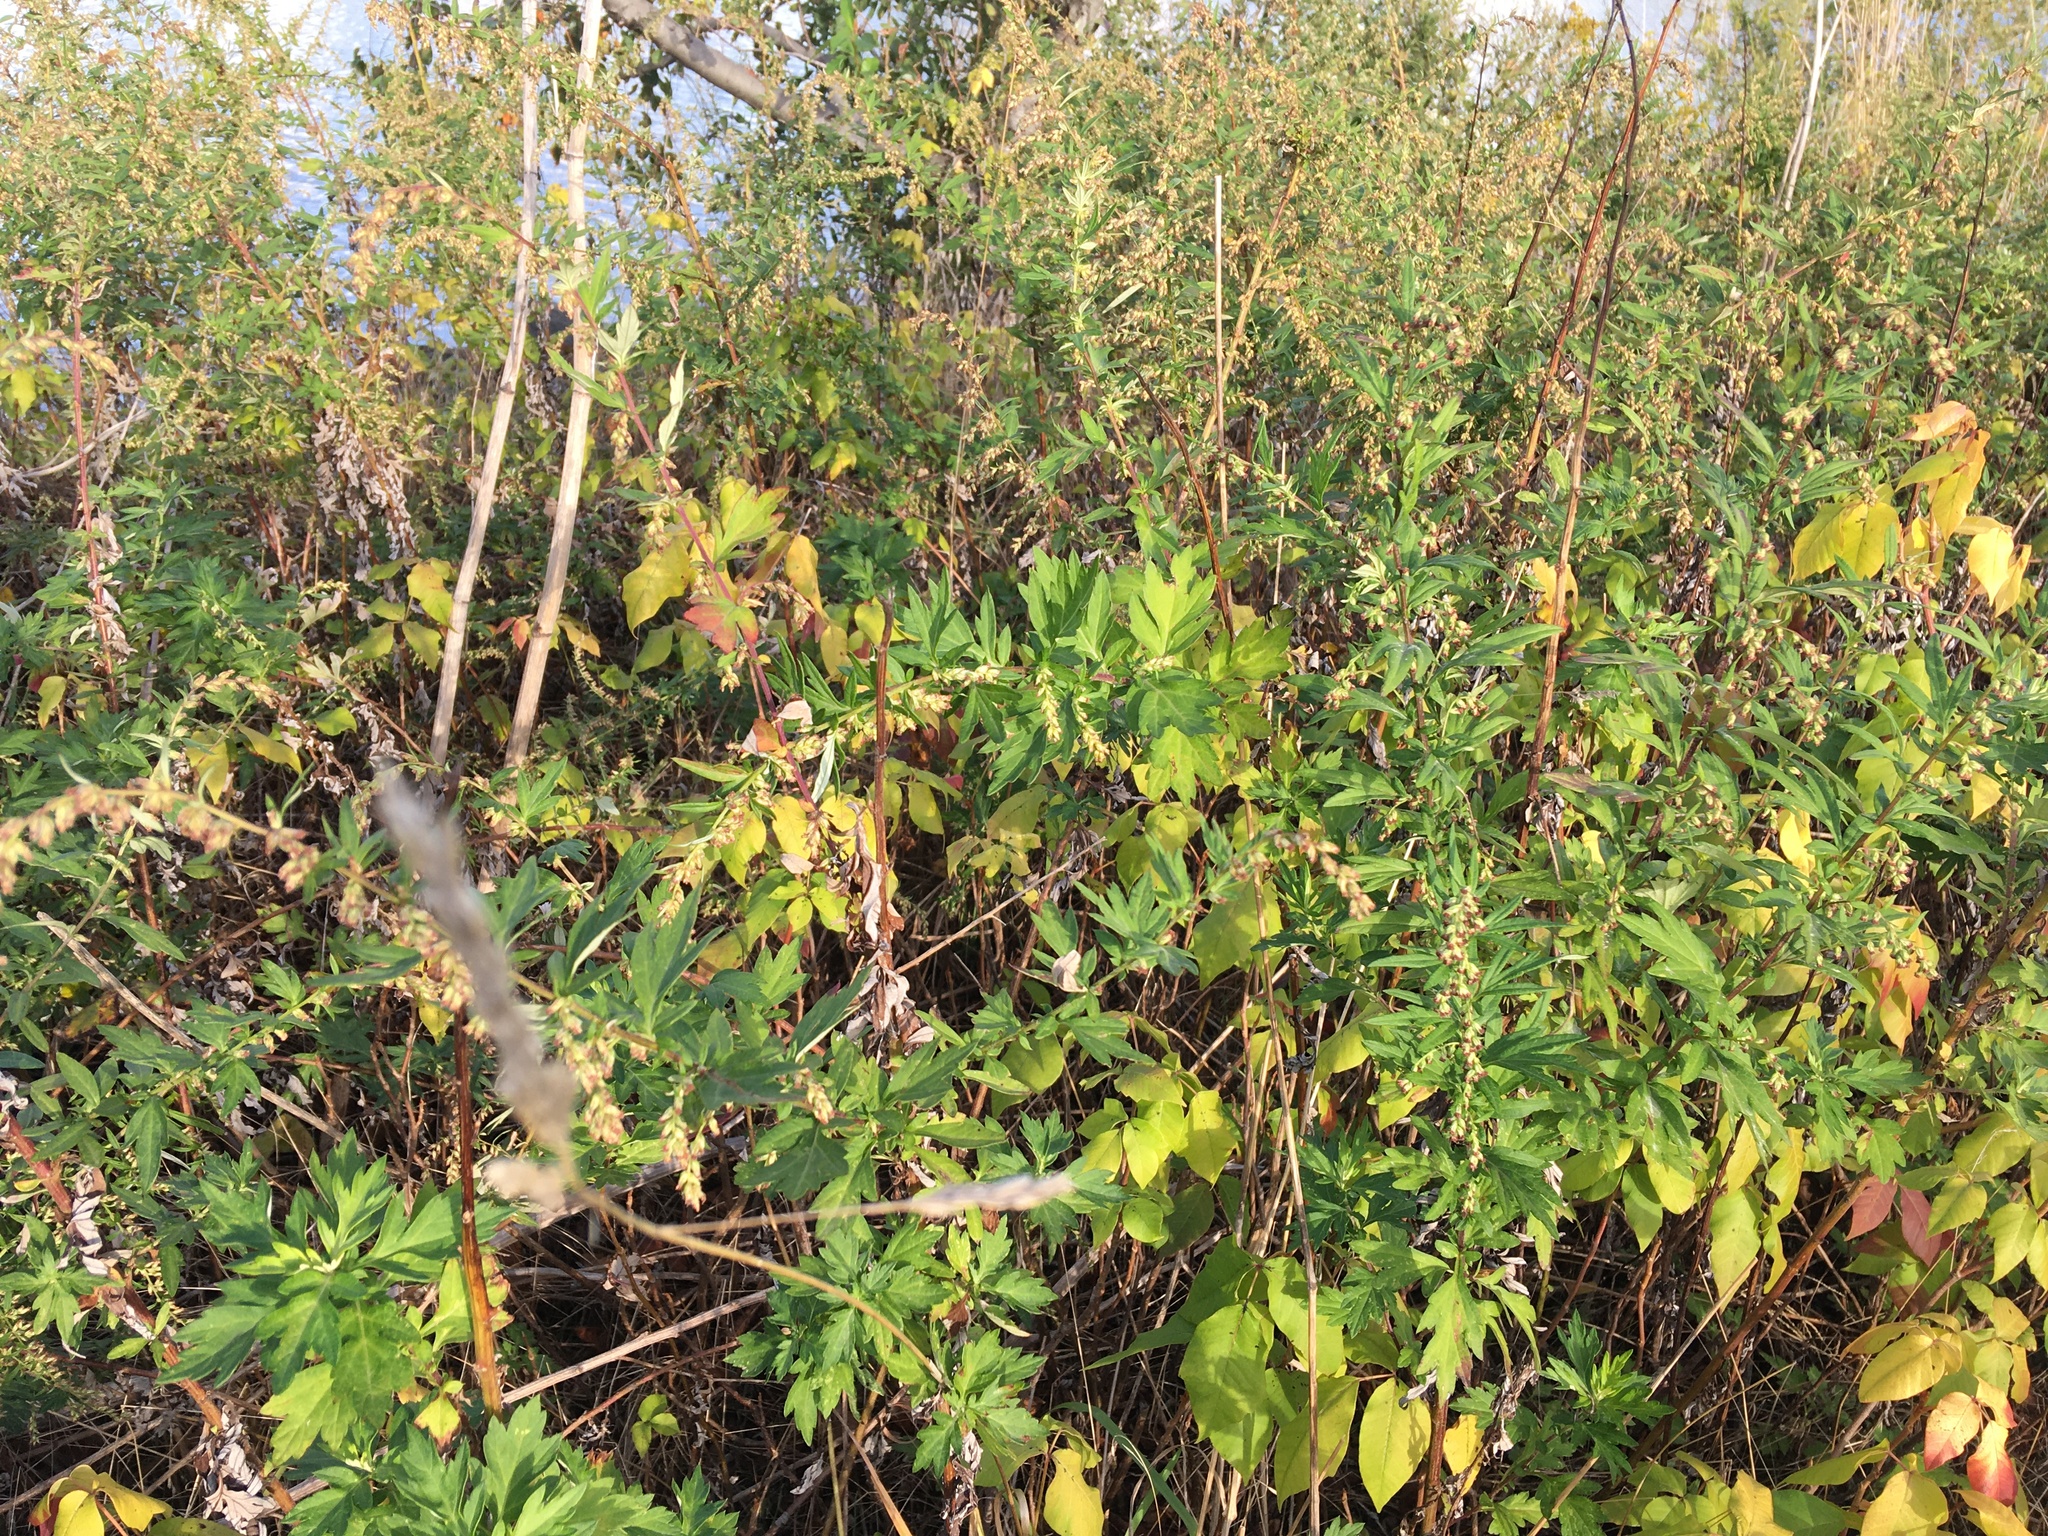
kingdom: Plantae
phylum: Tracheophyta
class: Magnoliopsida
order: Asterales
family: Asteraceae
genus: Artemisia
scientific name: Artemisia vulgaris
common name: Mugwort
